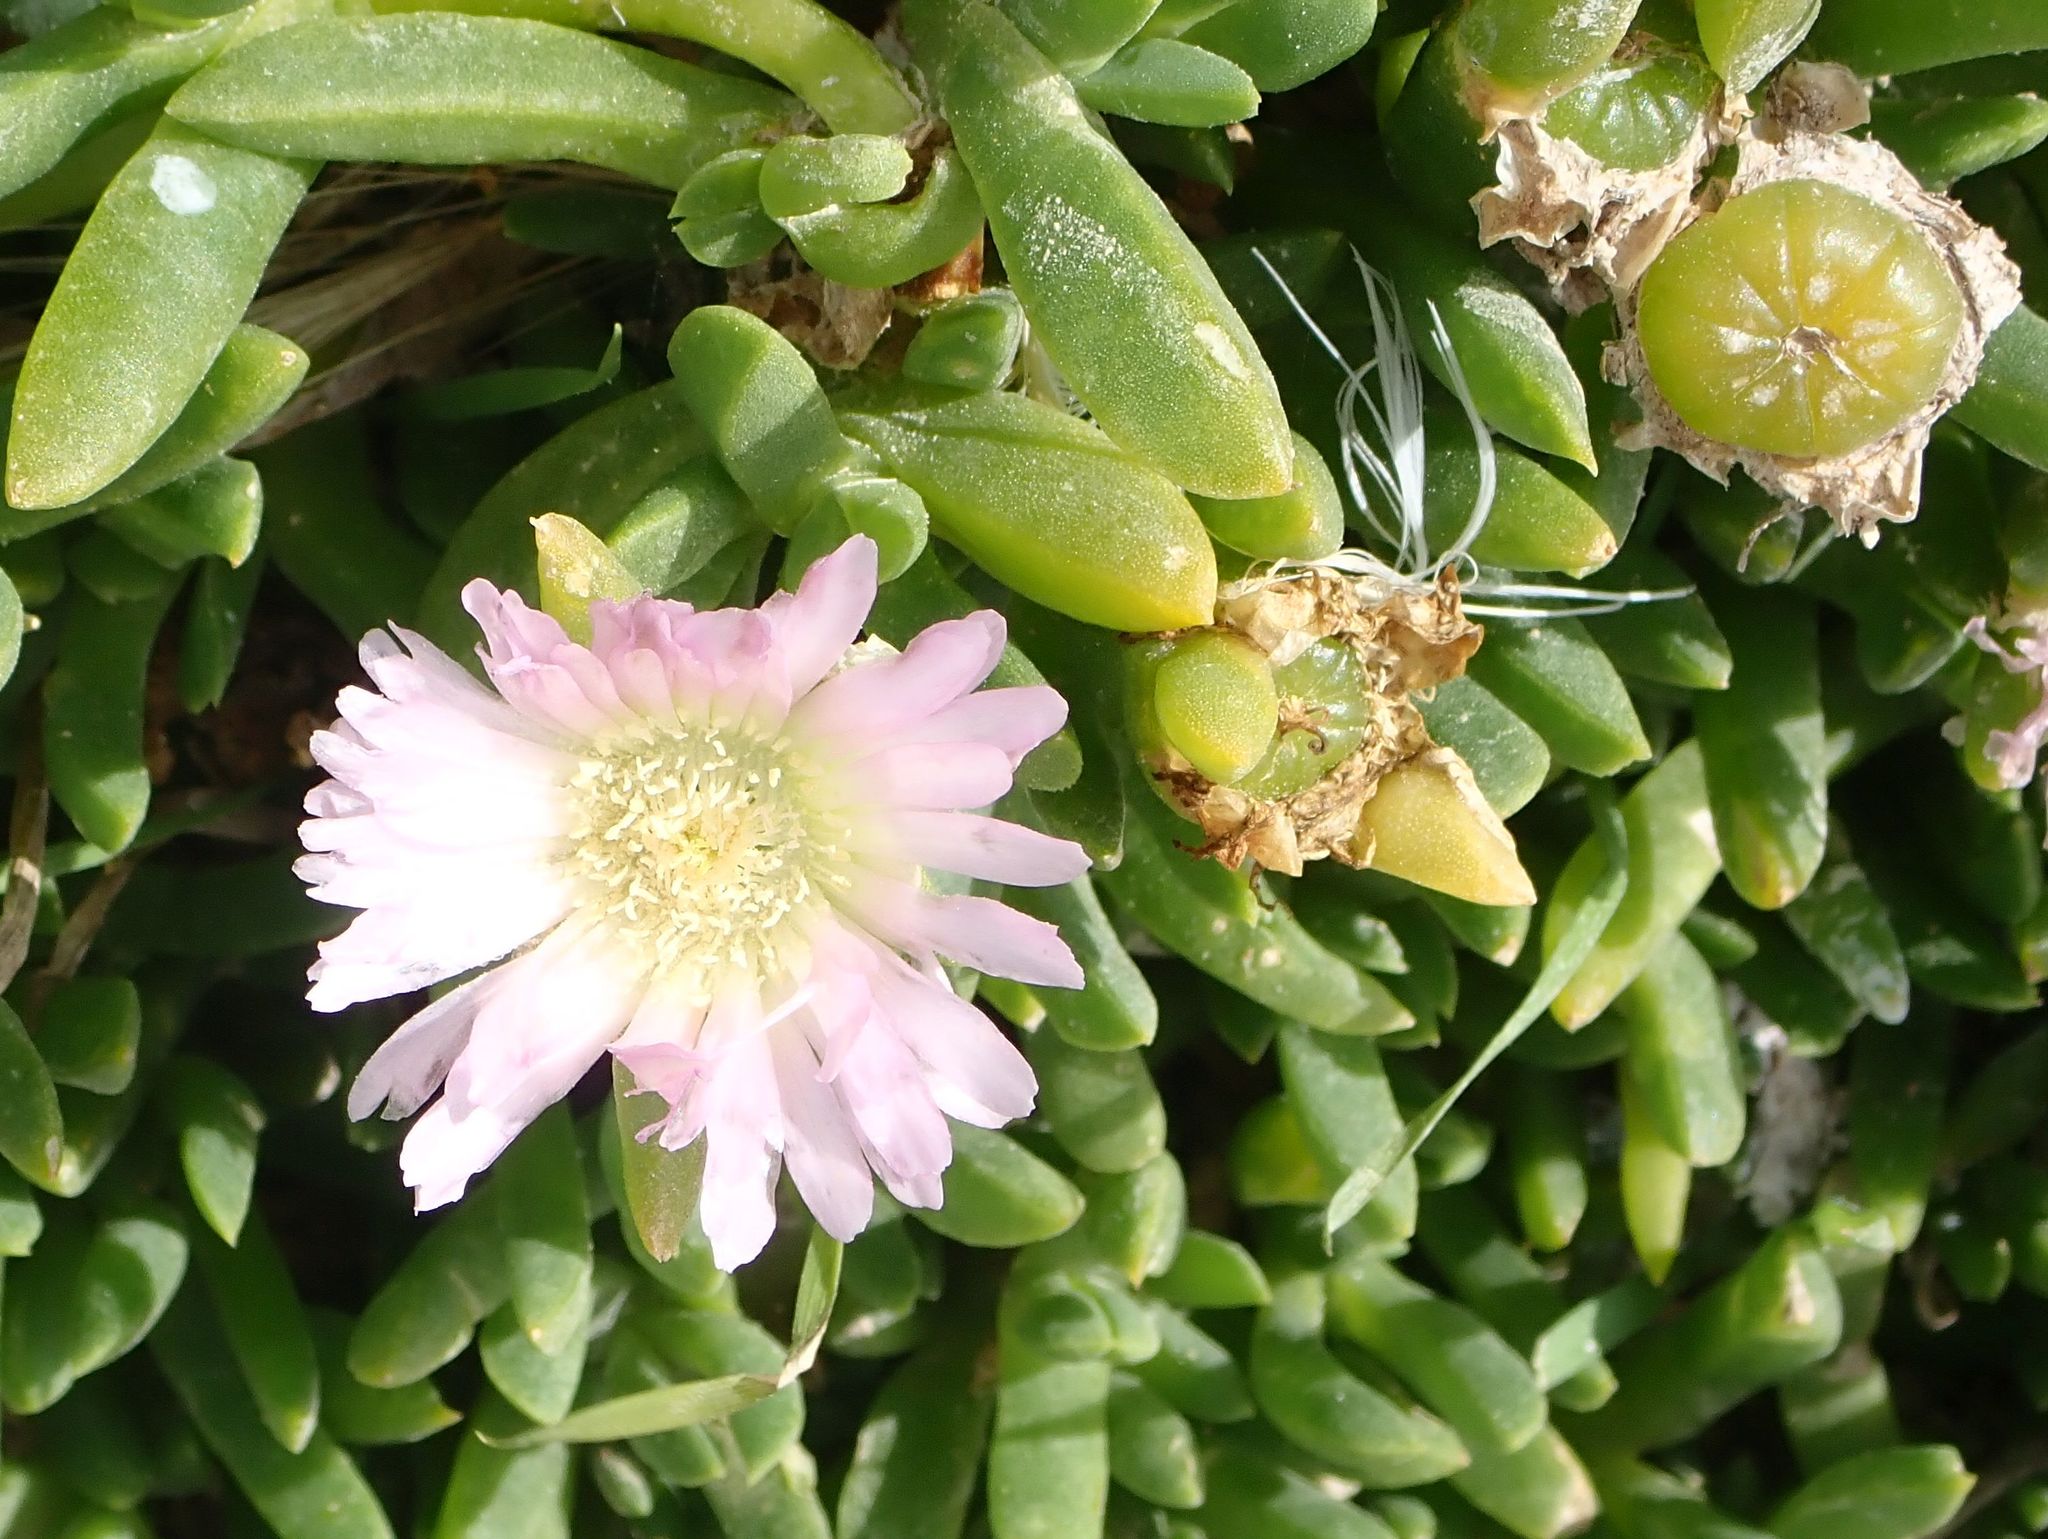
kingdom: Plantae
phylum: Tracheophyta
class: Magnoliopsida
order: Caryophyllales
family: Aizoaceae
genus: Disphyma
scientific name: Disphyma australe
